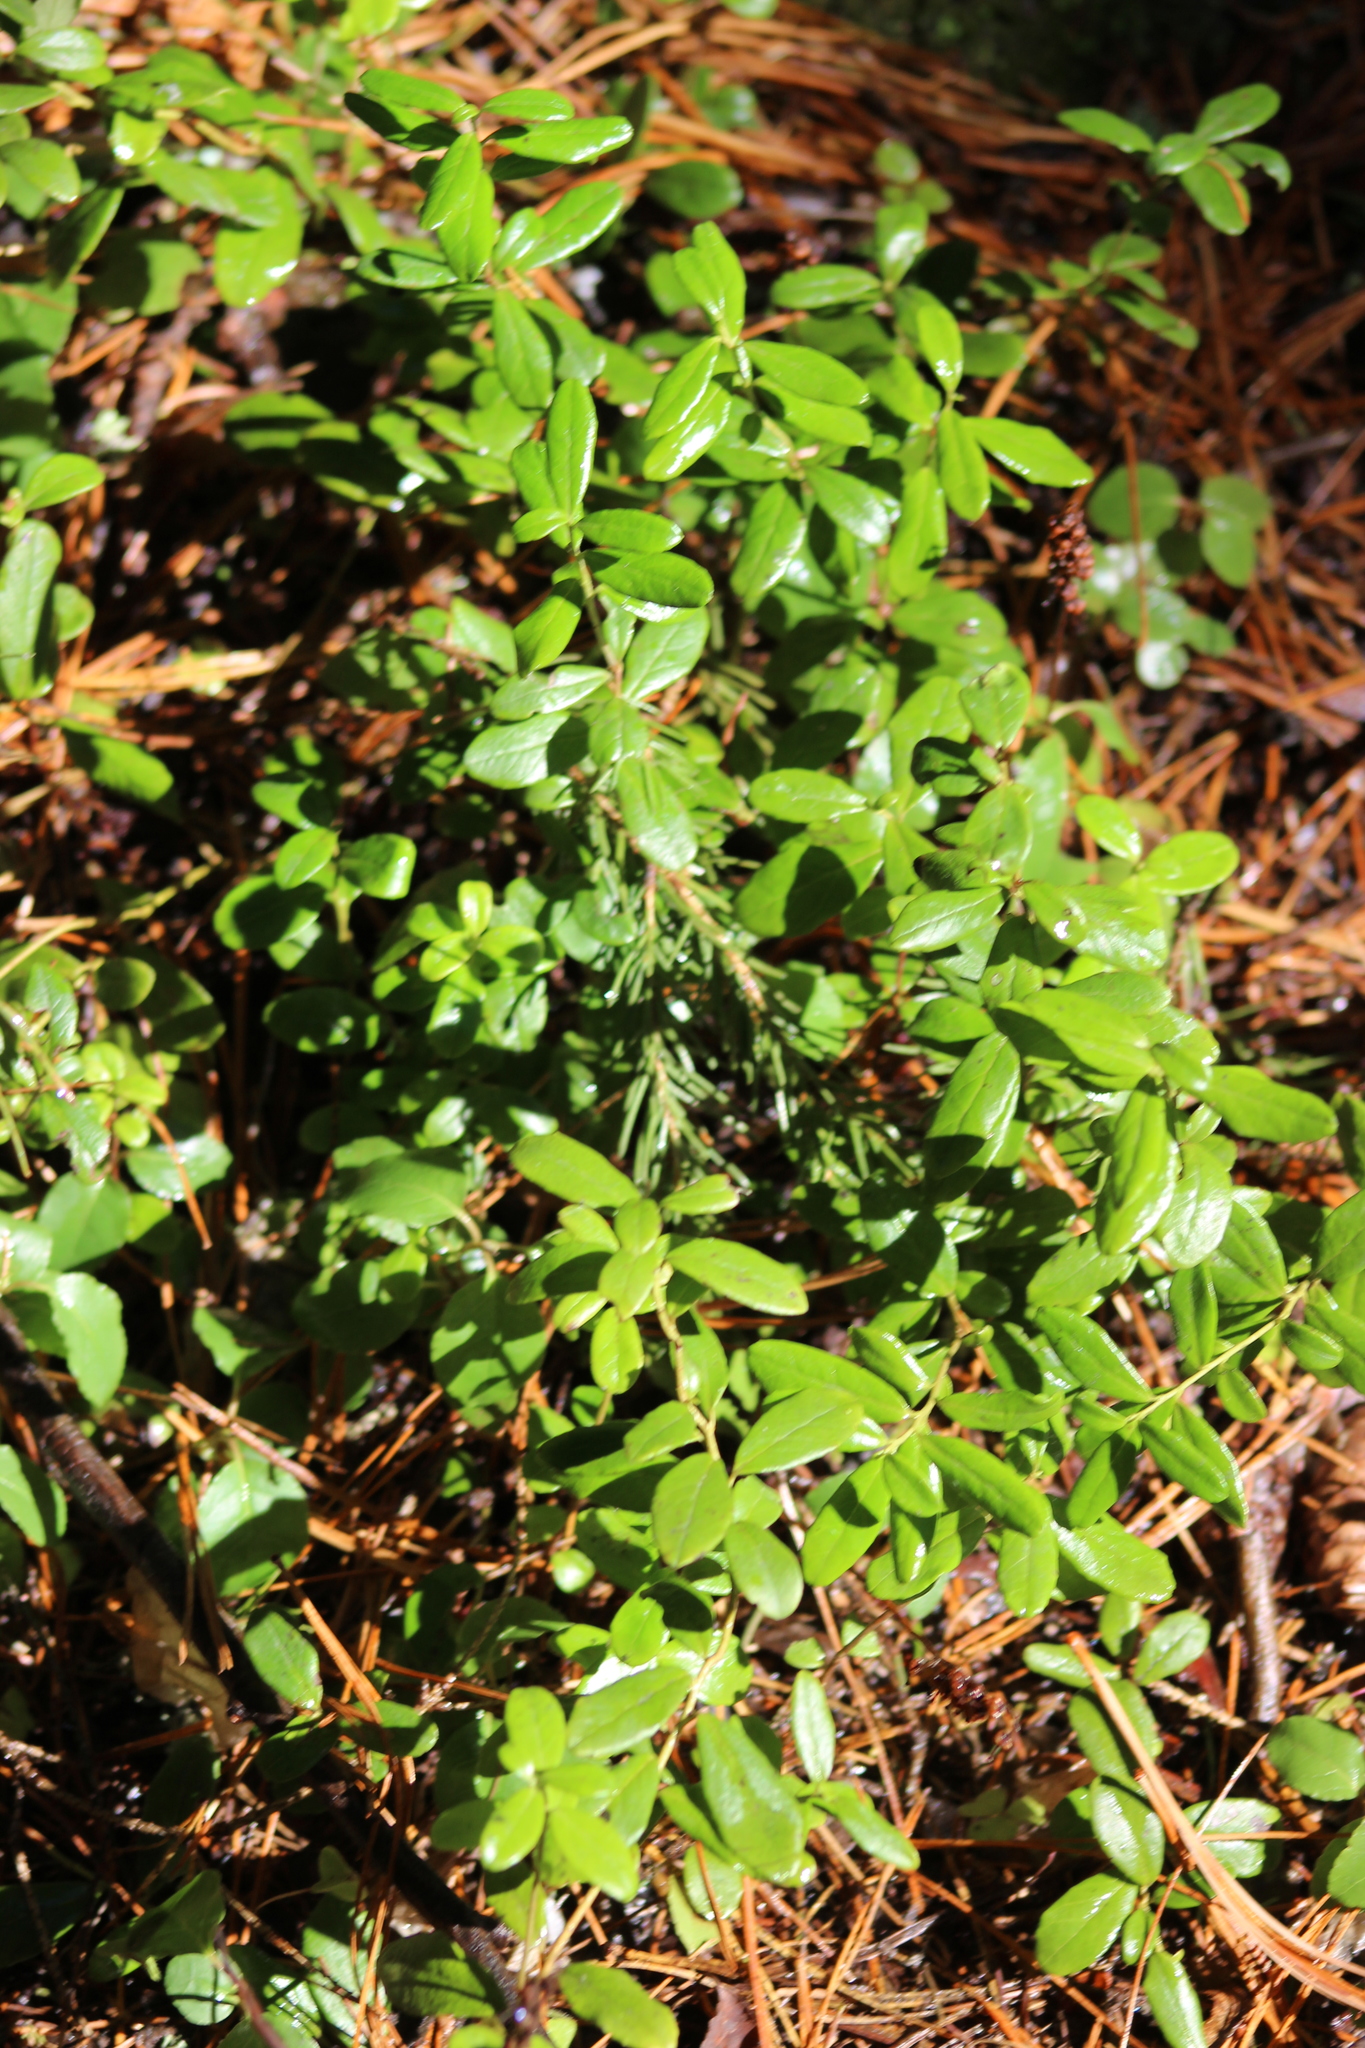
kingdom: Plantae
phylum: Tracheophyta
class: Magnoliopsida
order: Ericales
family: Ericaceae
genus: Vaccinium
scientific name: Vaccinium vitis-idaea
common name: Cowberry
